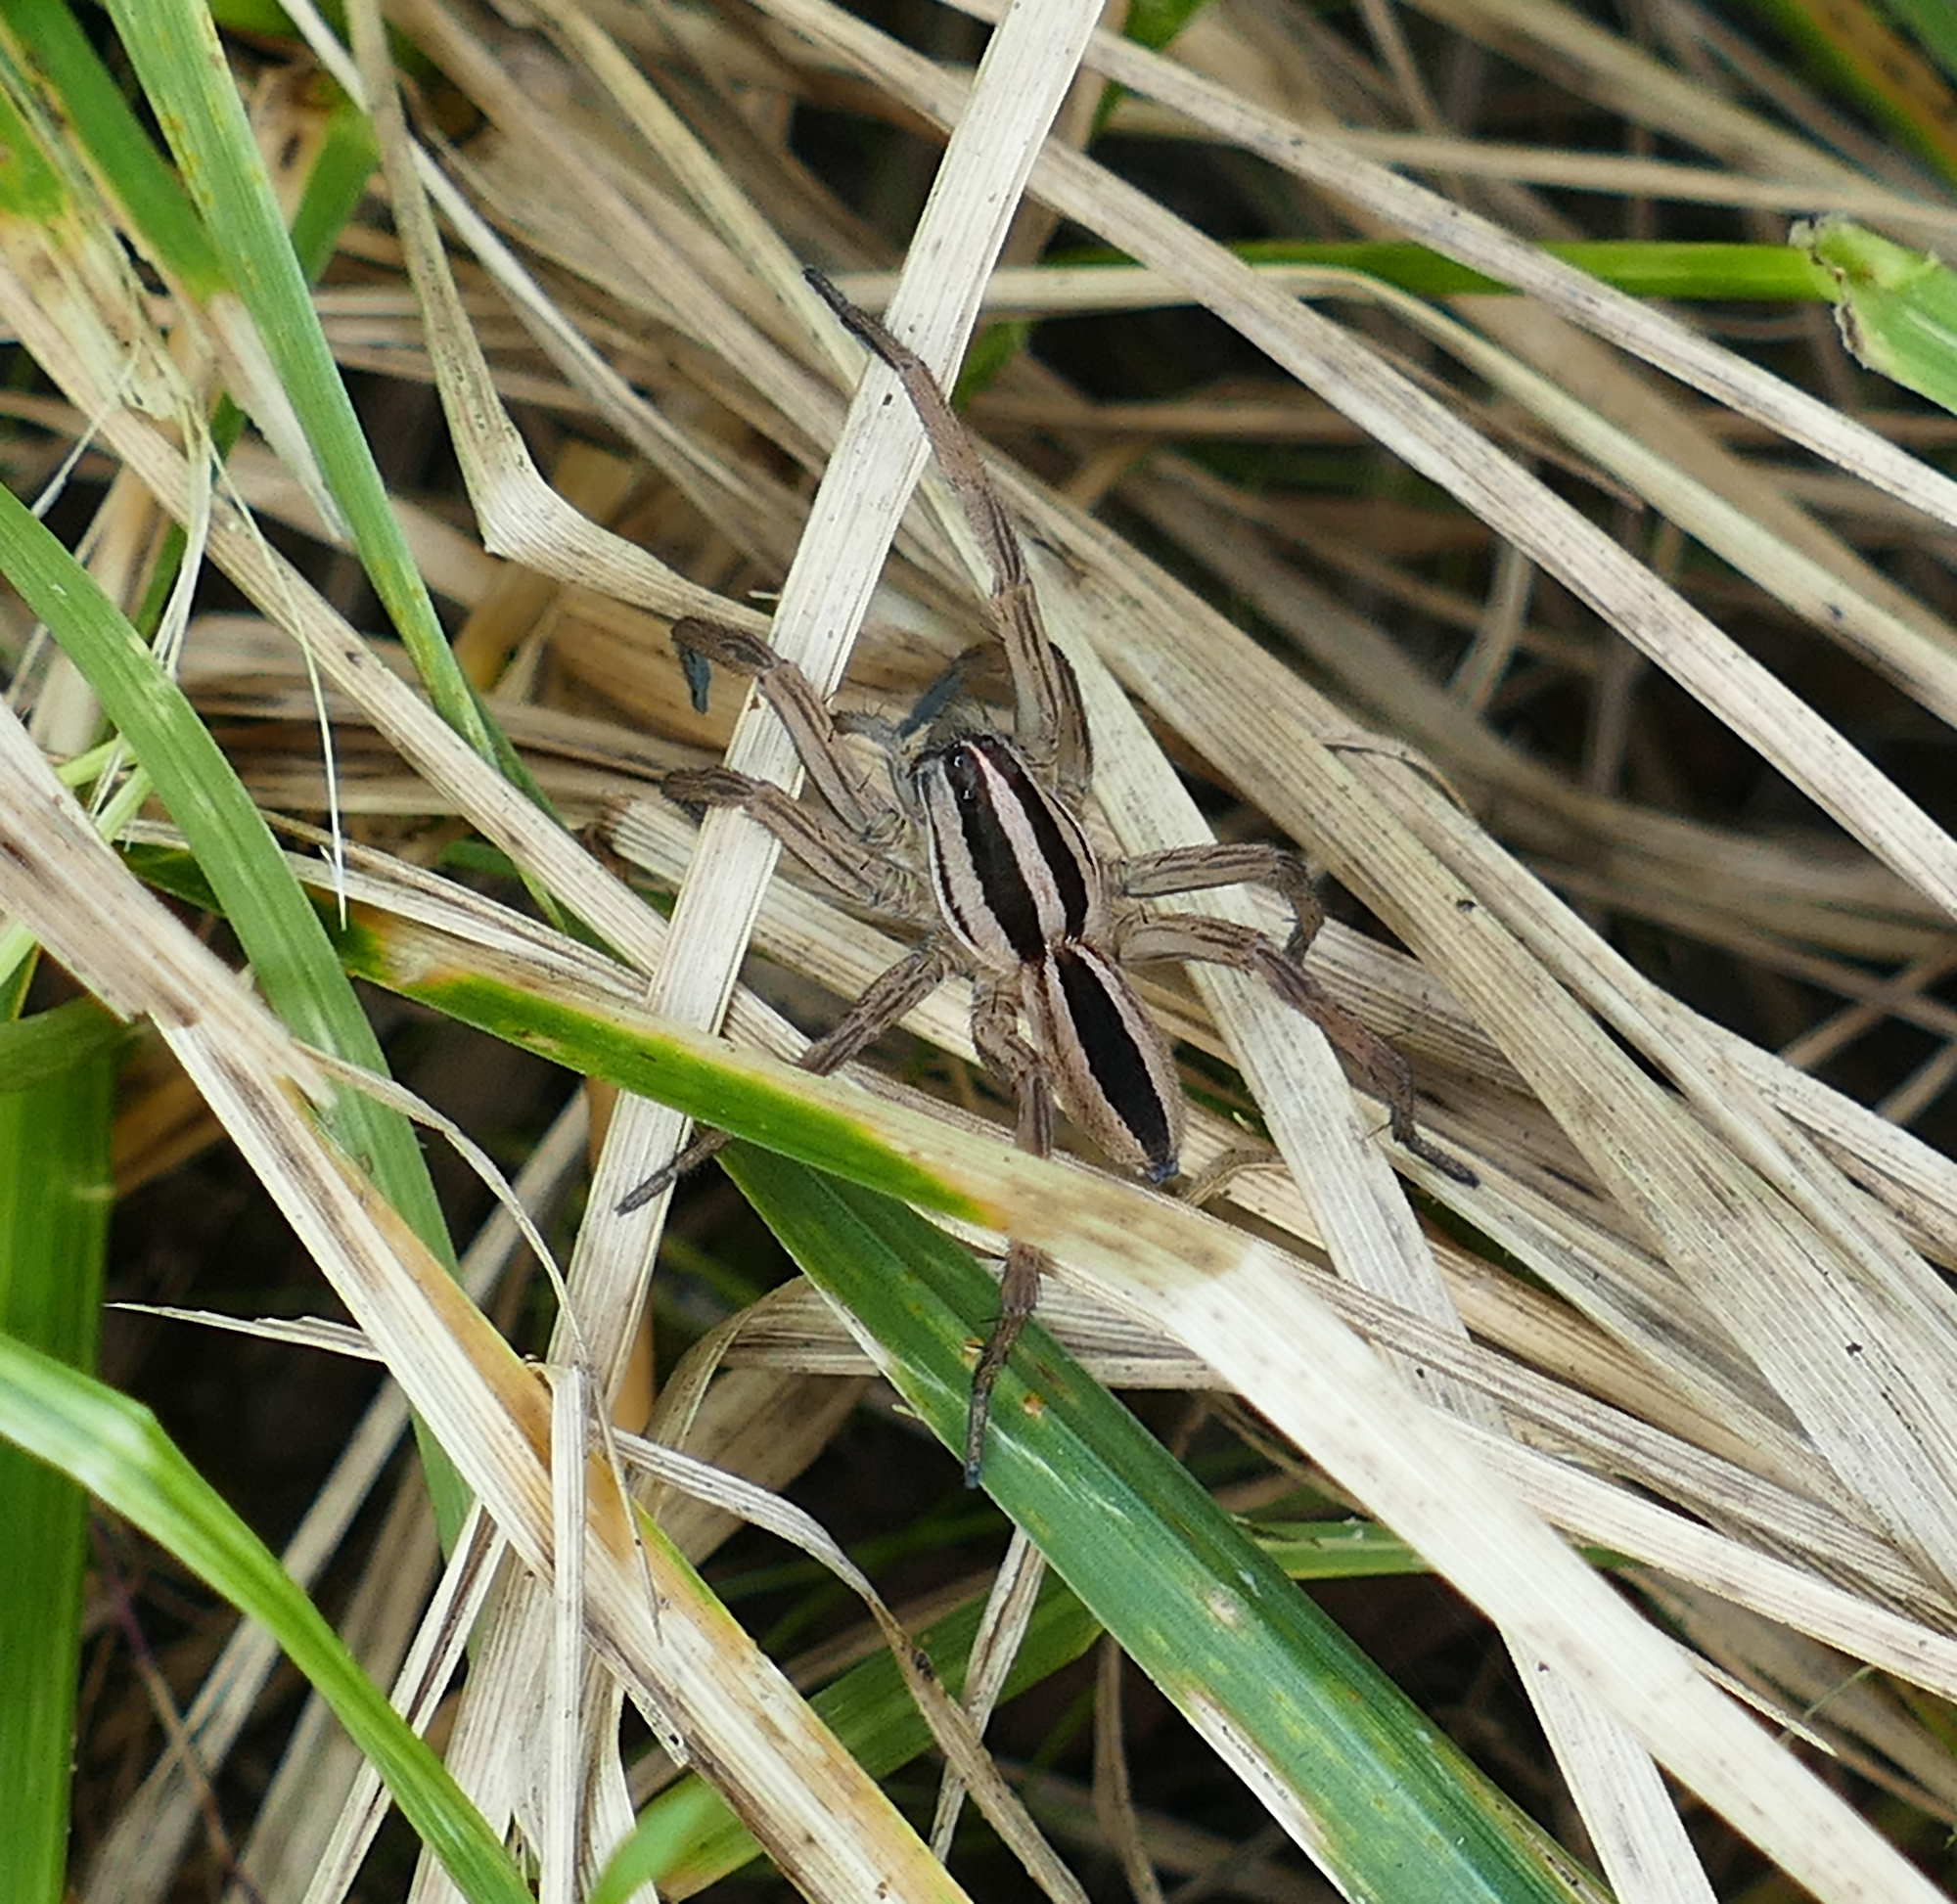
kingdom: Animalia
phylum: Arthropoda
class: Arachnida
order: Araneae
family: Lycosidae
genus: Rabidosa
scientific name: Rabidosa punctulata
